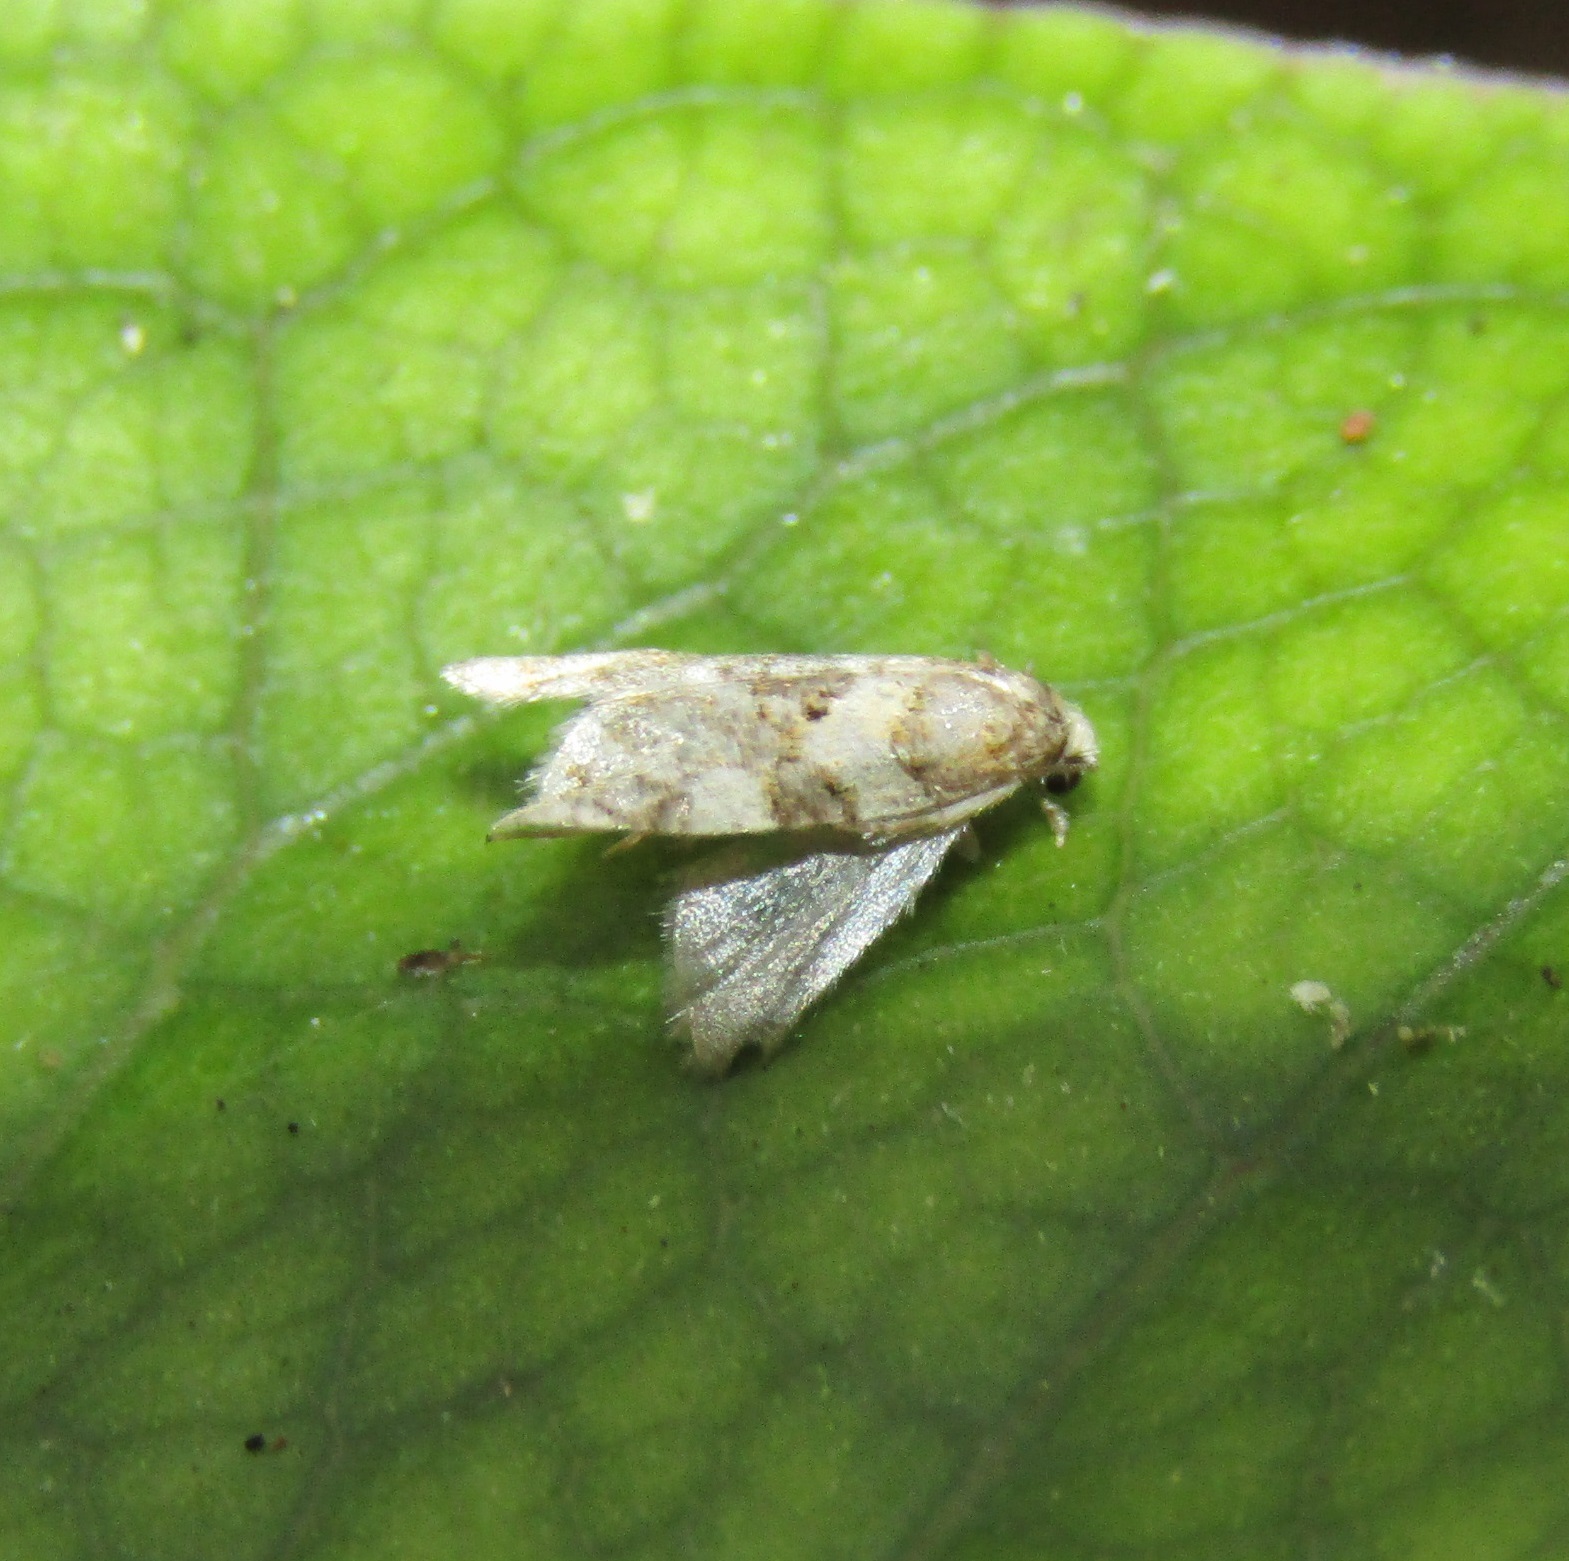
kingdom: Animalia
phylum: Arthropoda
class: Insecta
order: Lepidoptera
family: Tortricidae
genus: Dipterina
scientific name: Dipterina imbriferana
